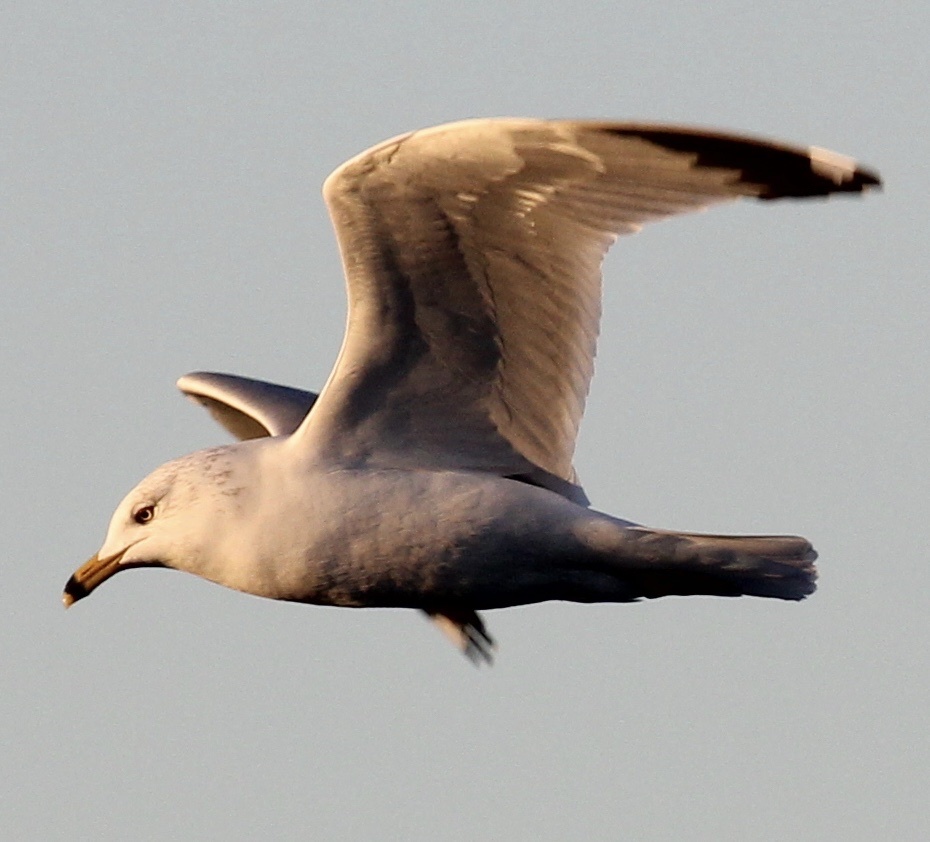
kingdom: Animalia
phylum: Chordata
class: Aves
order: Charadriiformes
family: Laridae
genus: Larus
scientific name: Larus delawarensis
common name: Ring-billed gull
